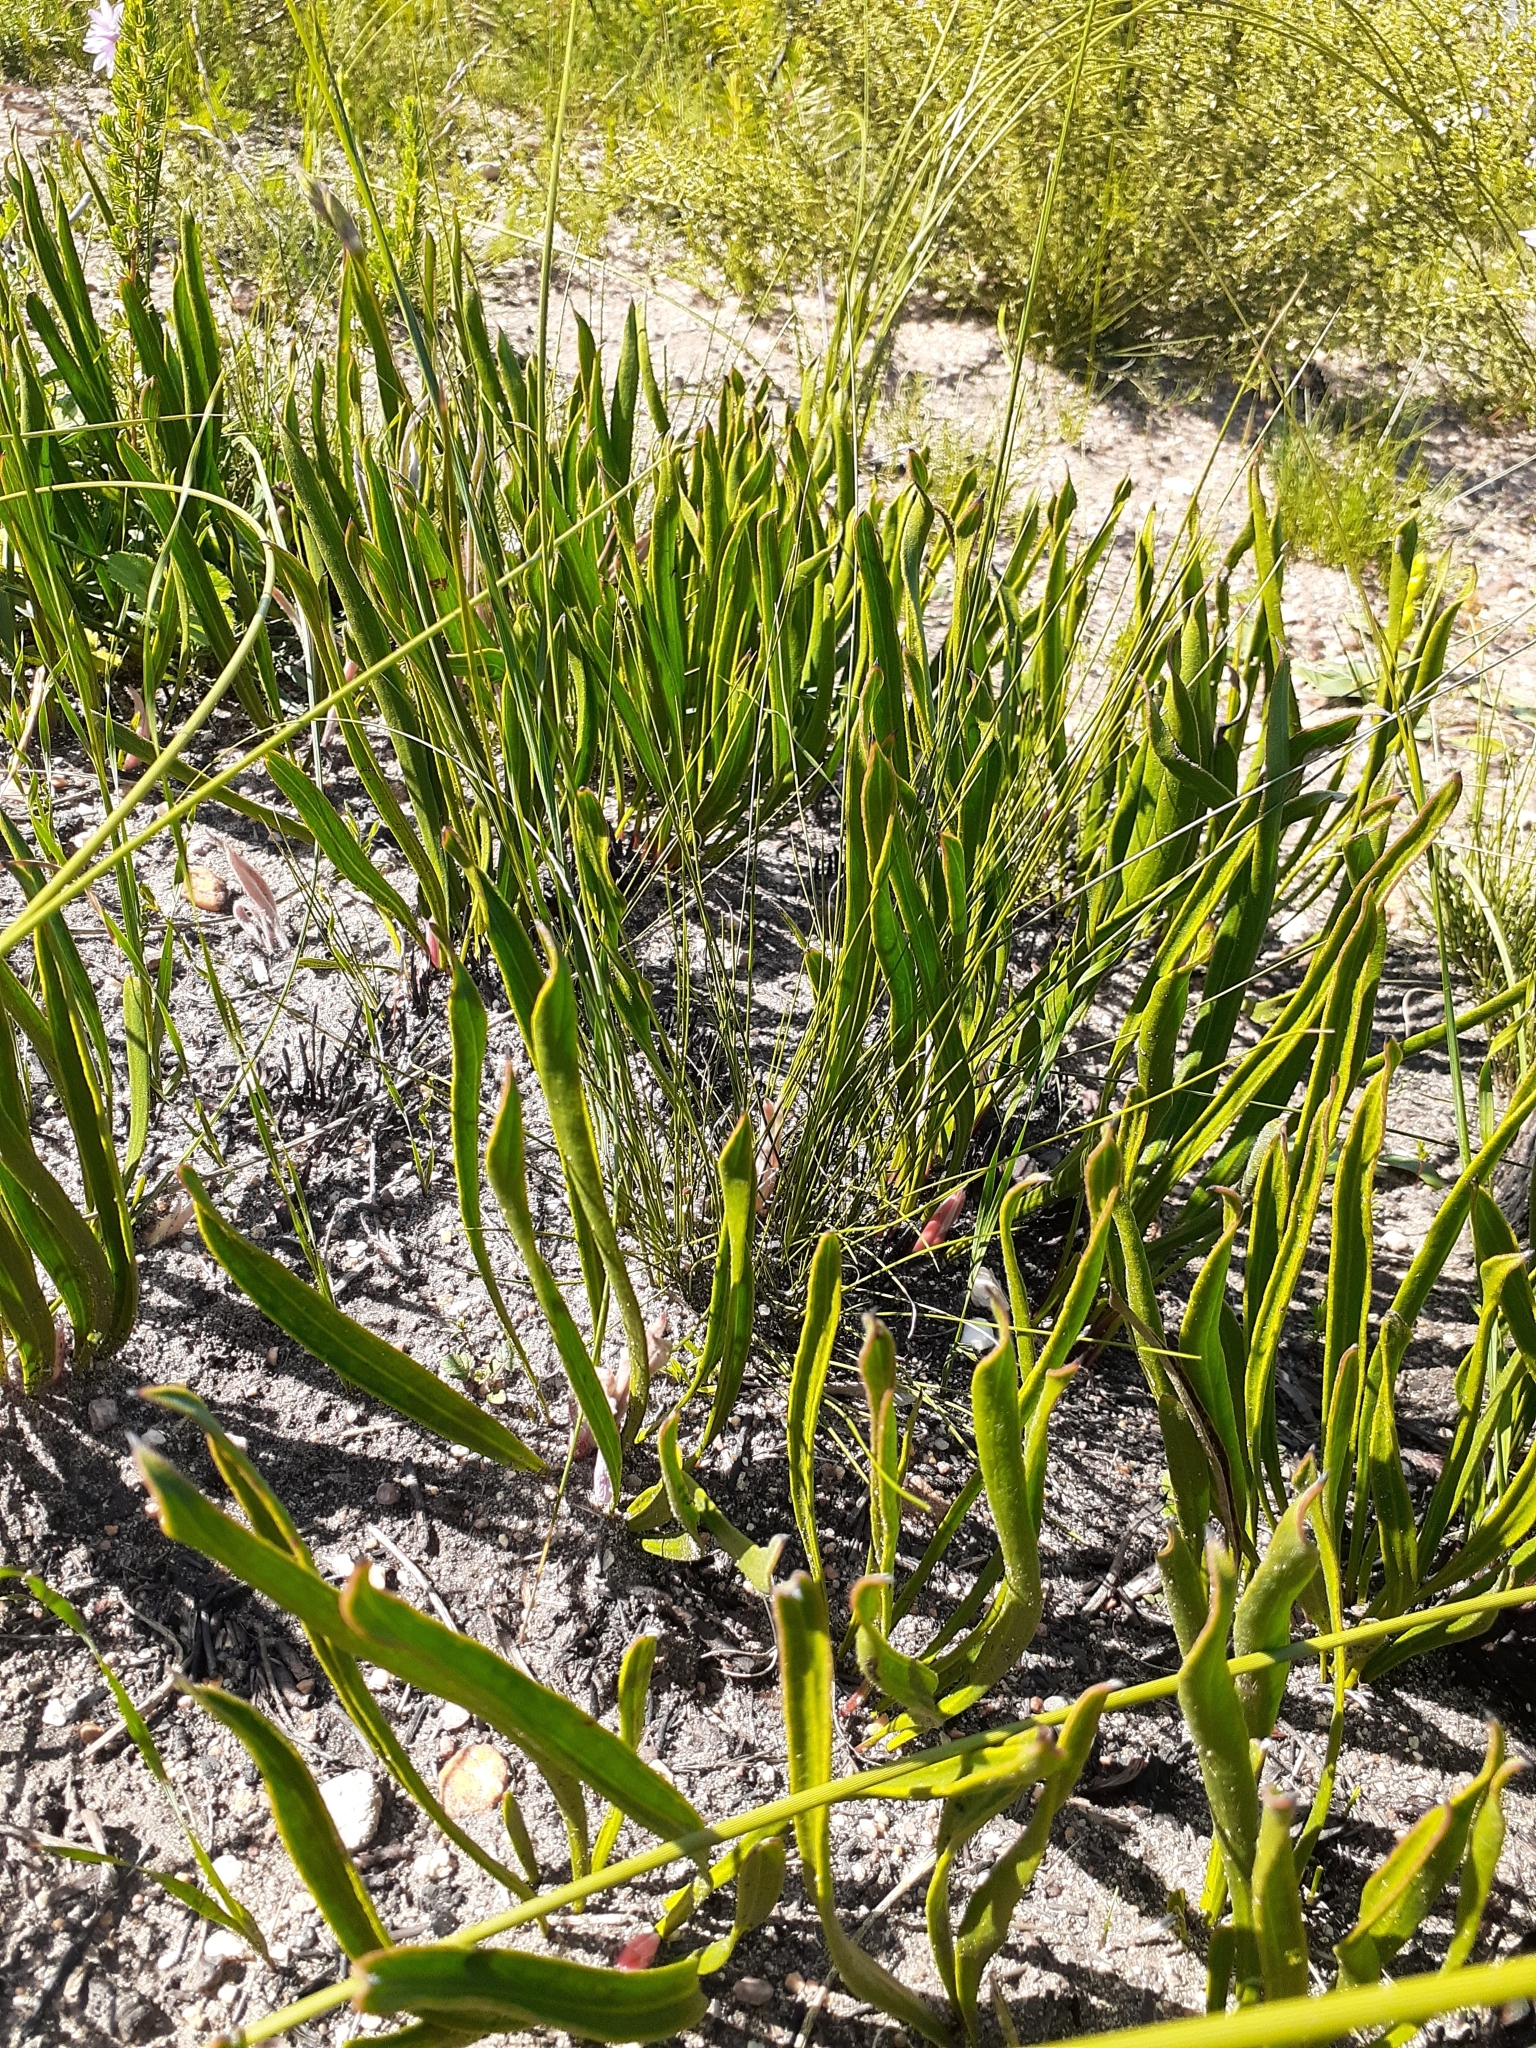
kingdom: Plantae
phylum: Tracheophyta
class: Magnoliopsida
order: Proteales
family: Proteaceae
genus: Protea
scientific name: Protea scabra
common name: Sandpaper-leaf sugarbush
